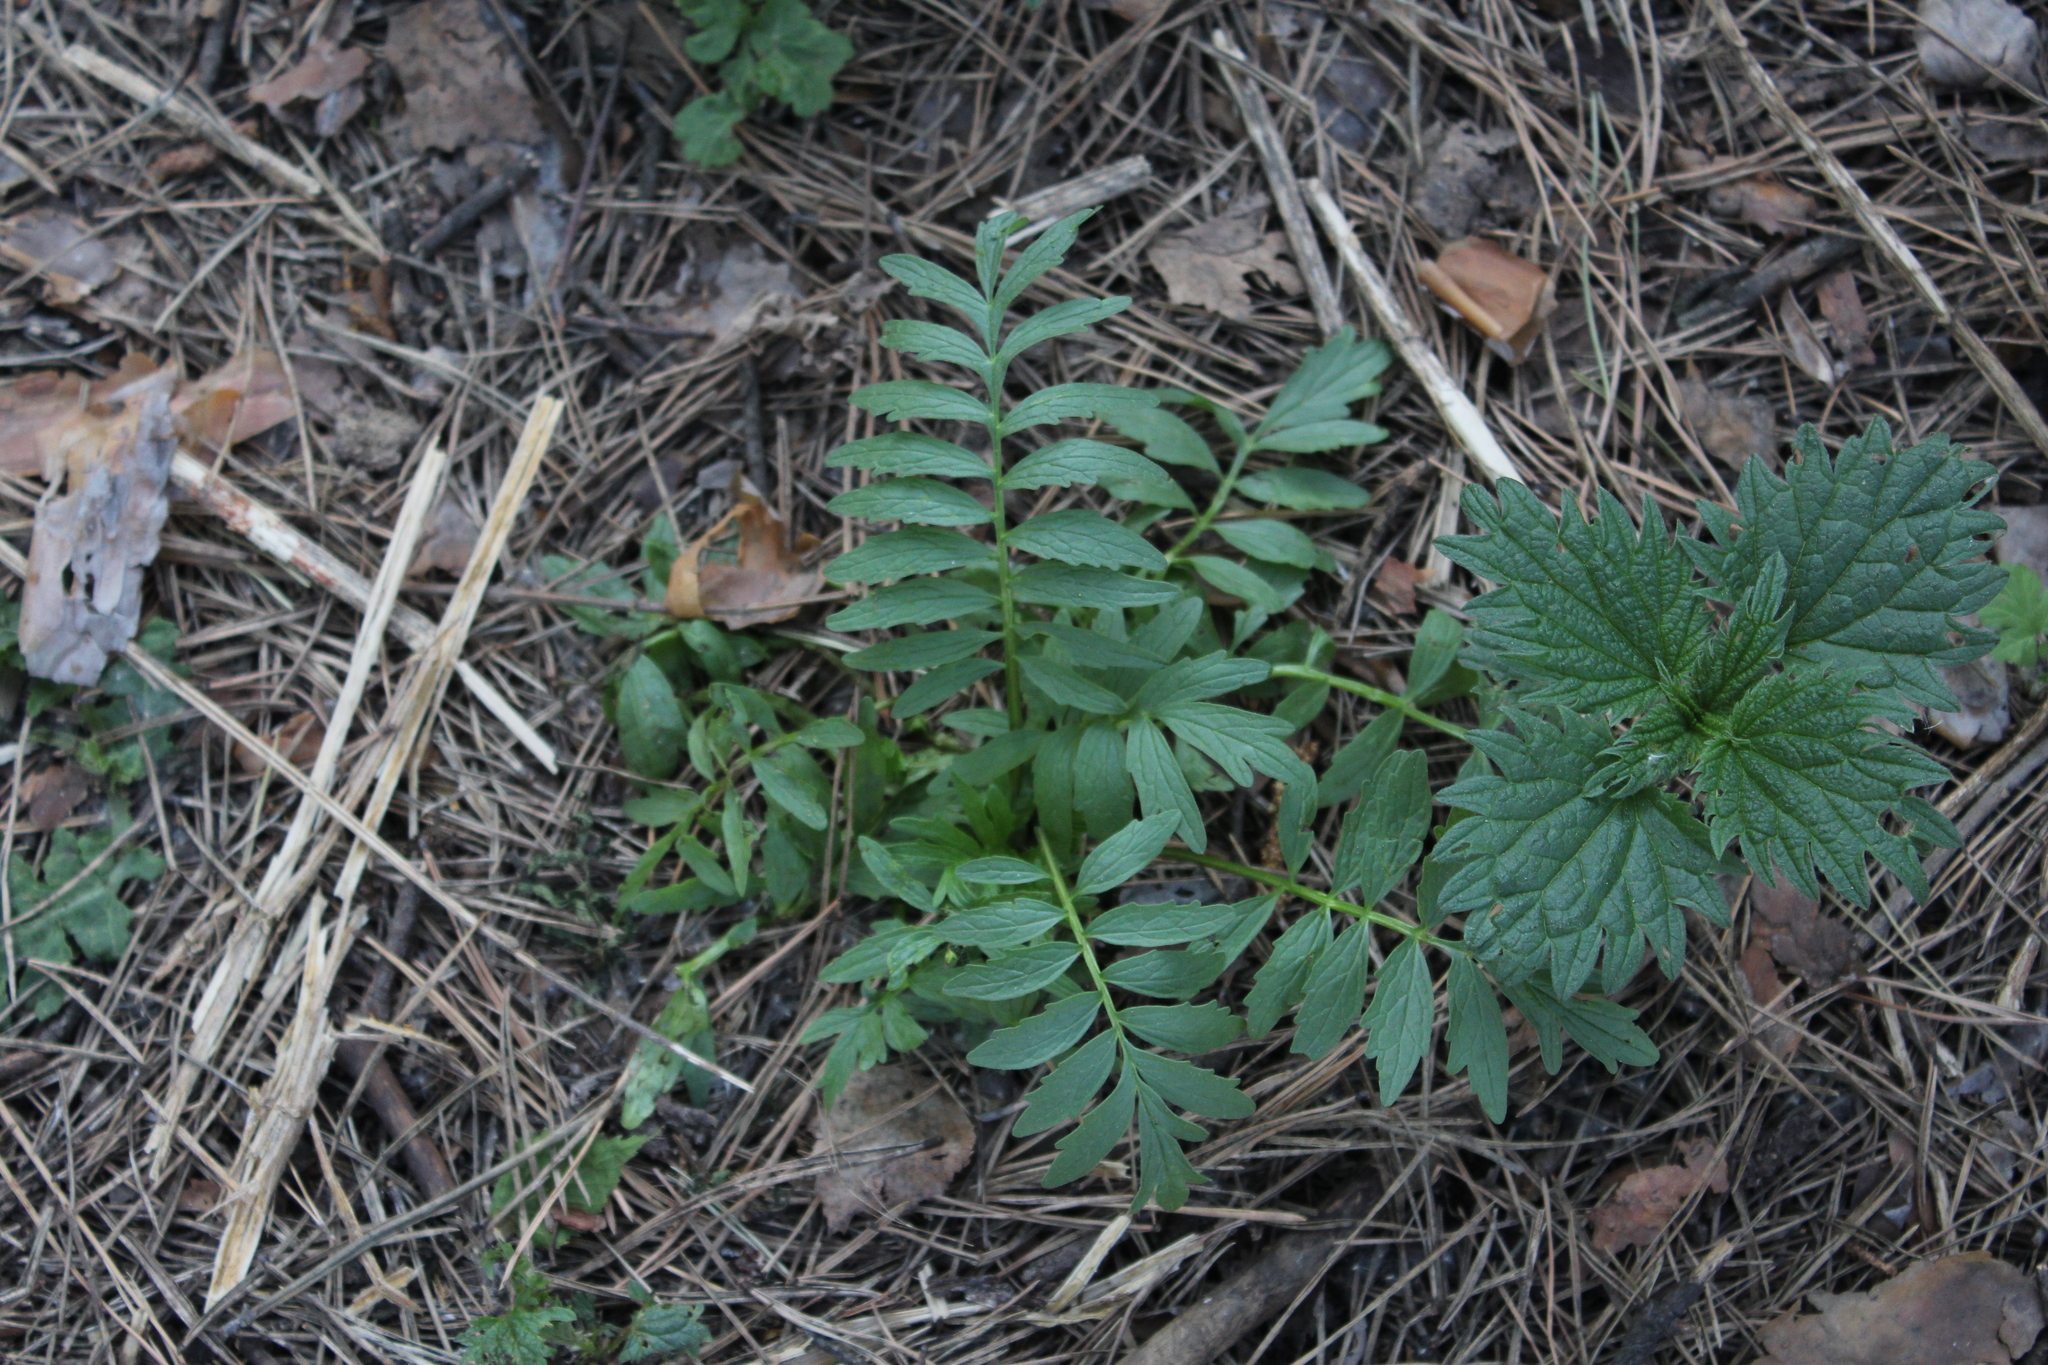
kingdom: Plantae
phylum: Tracheophyta
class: Magnoliopsida
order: Dipsacales
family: Caprifoliaceae
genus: Valeriana
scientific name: Valeriana officinalis
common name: Common valerian
